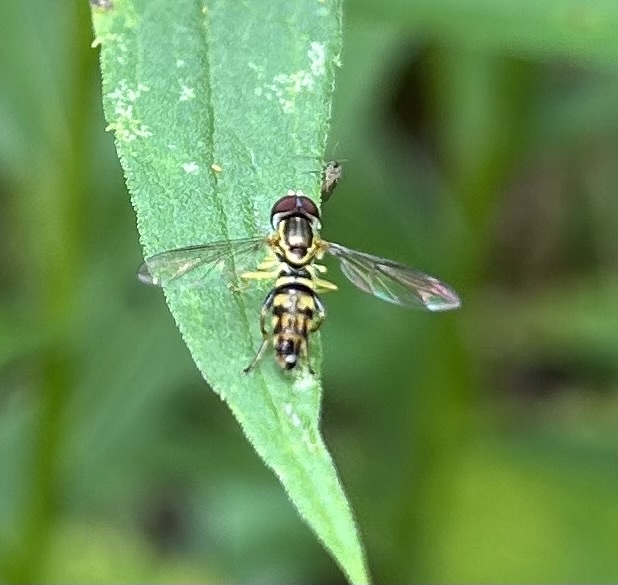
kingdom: Animalia
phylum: Arthropoda
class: Insecta
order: Diptera
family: Syrphidae
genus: Toxomerus
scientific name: Toxomerus geminatus
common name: Eastern calligrapher
